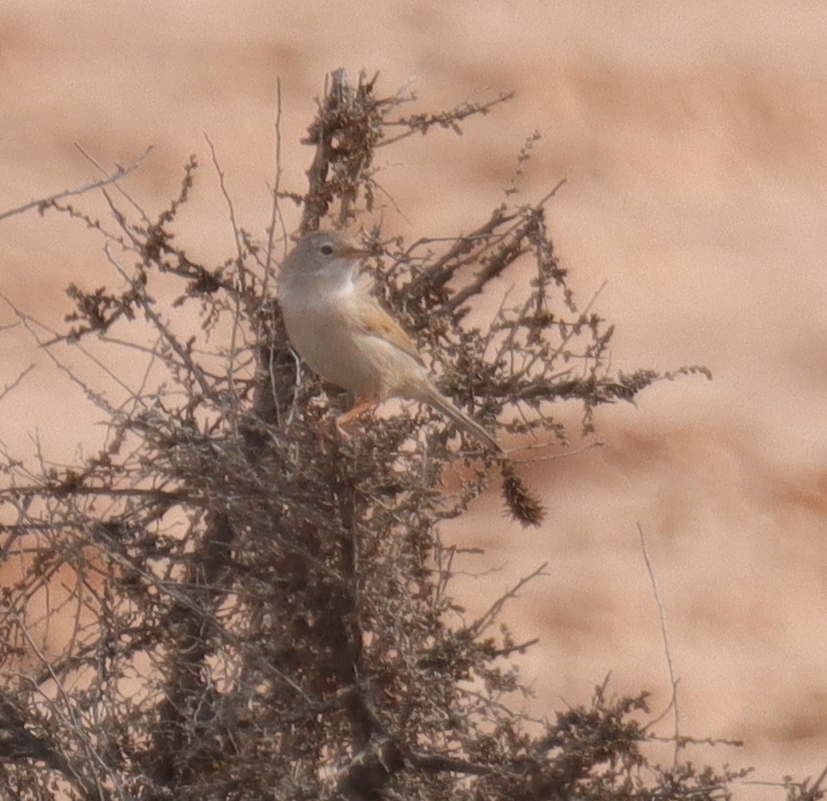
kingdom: Animalia
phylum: Chordata
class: Aves
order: Passeriformes
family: Sylviidae
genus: Sylvia
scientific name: Sylvia conspicillata
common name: Spectacled warbler
